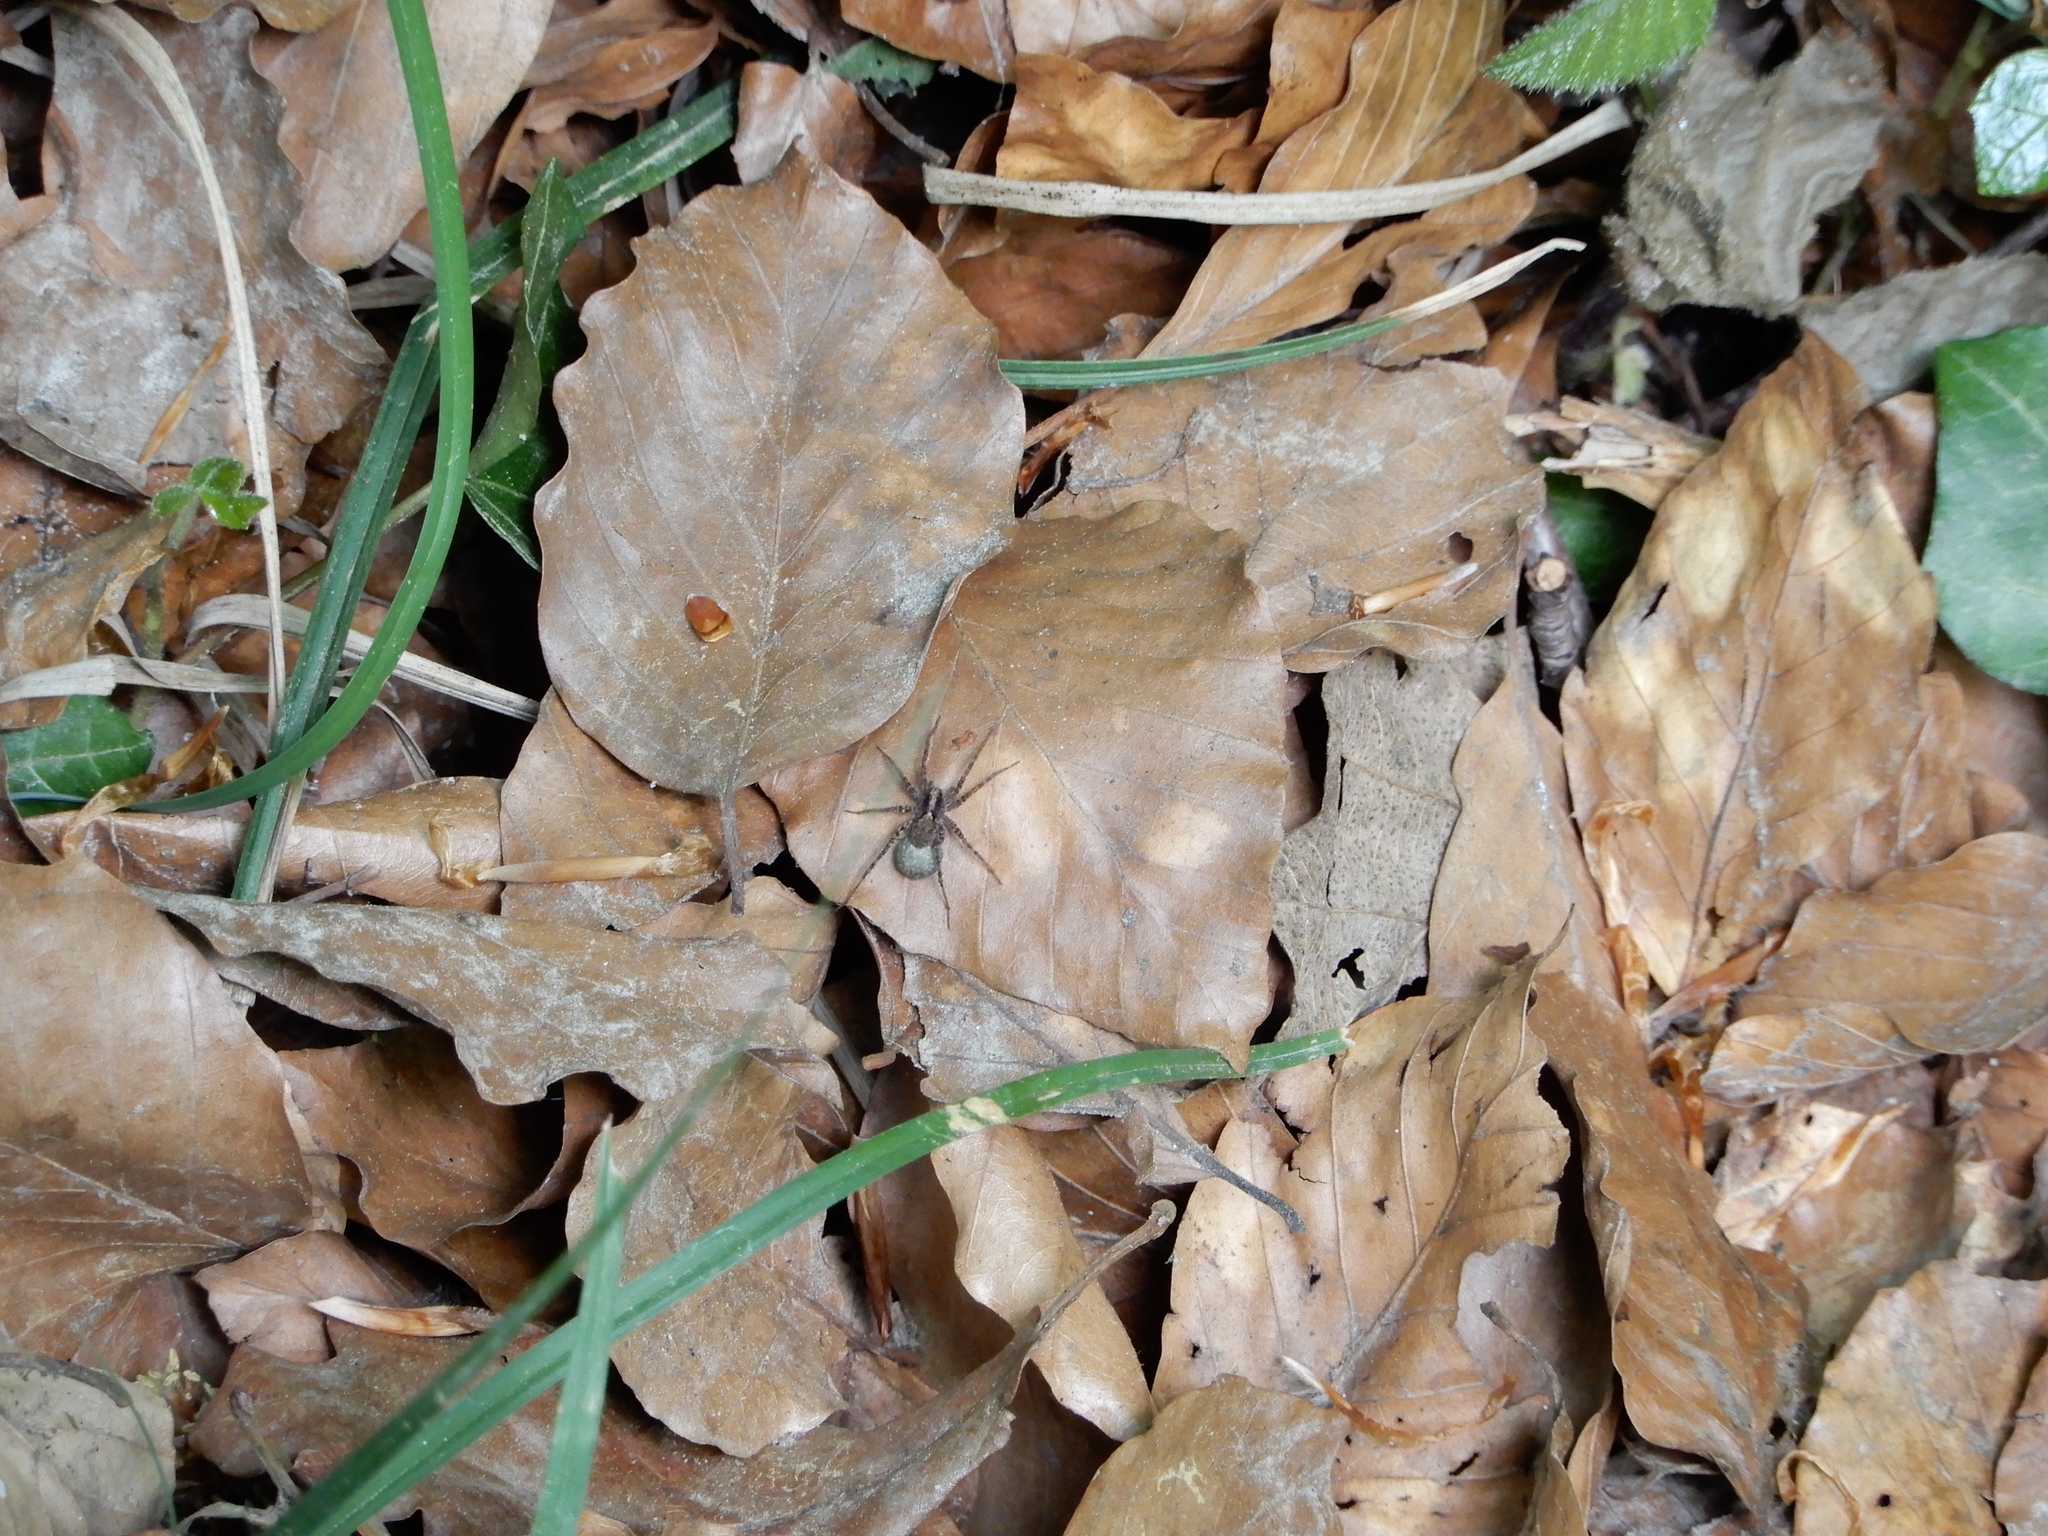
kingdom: Animalia
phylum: Arthropoda
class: Arachnida
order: Araneae
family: Lycosidae
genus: Pardosa
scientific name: Pardosa
